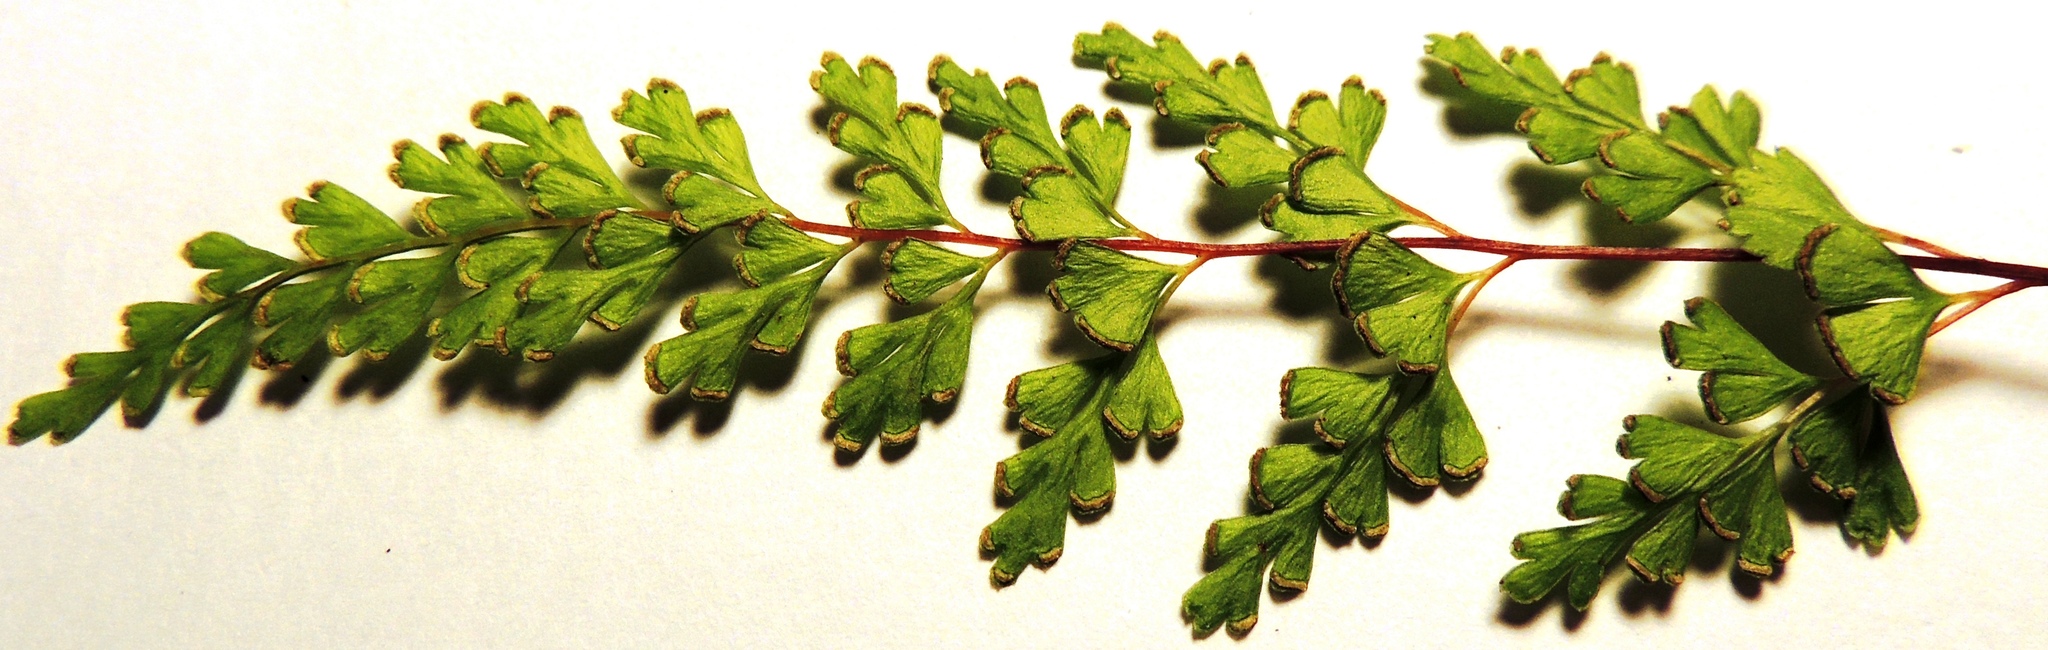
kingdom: Plantae
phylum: Tracheophyta
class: Polypodiopsida
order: Polypodiales
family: Lindsaeaceae
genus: Lindsaea
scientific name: Lindsaea trichomanoides
